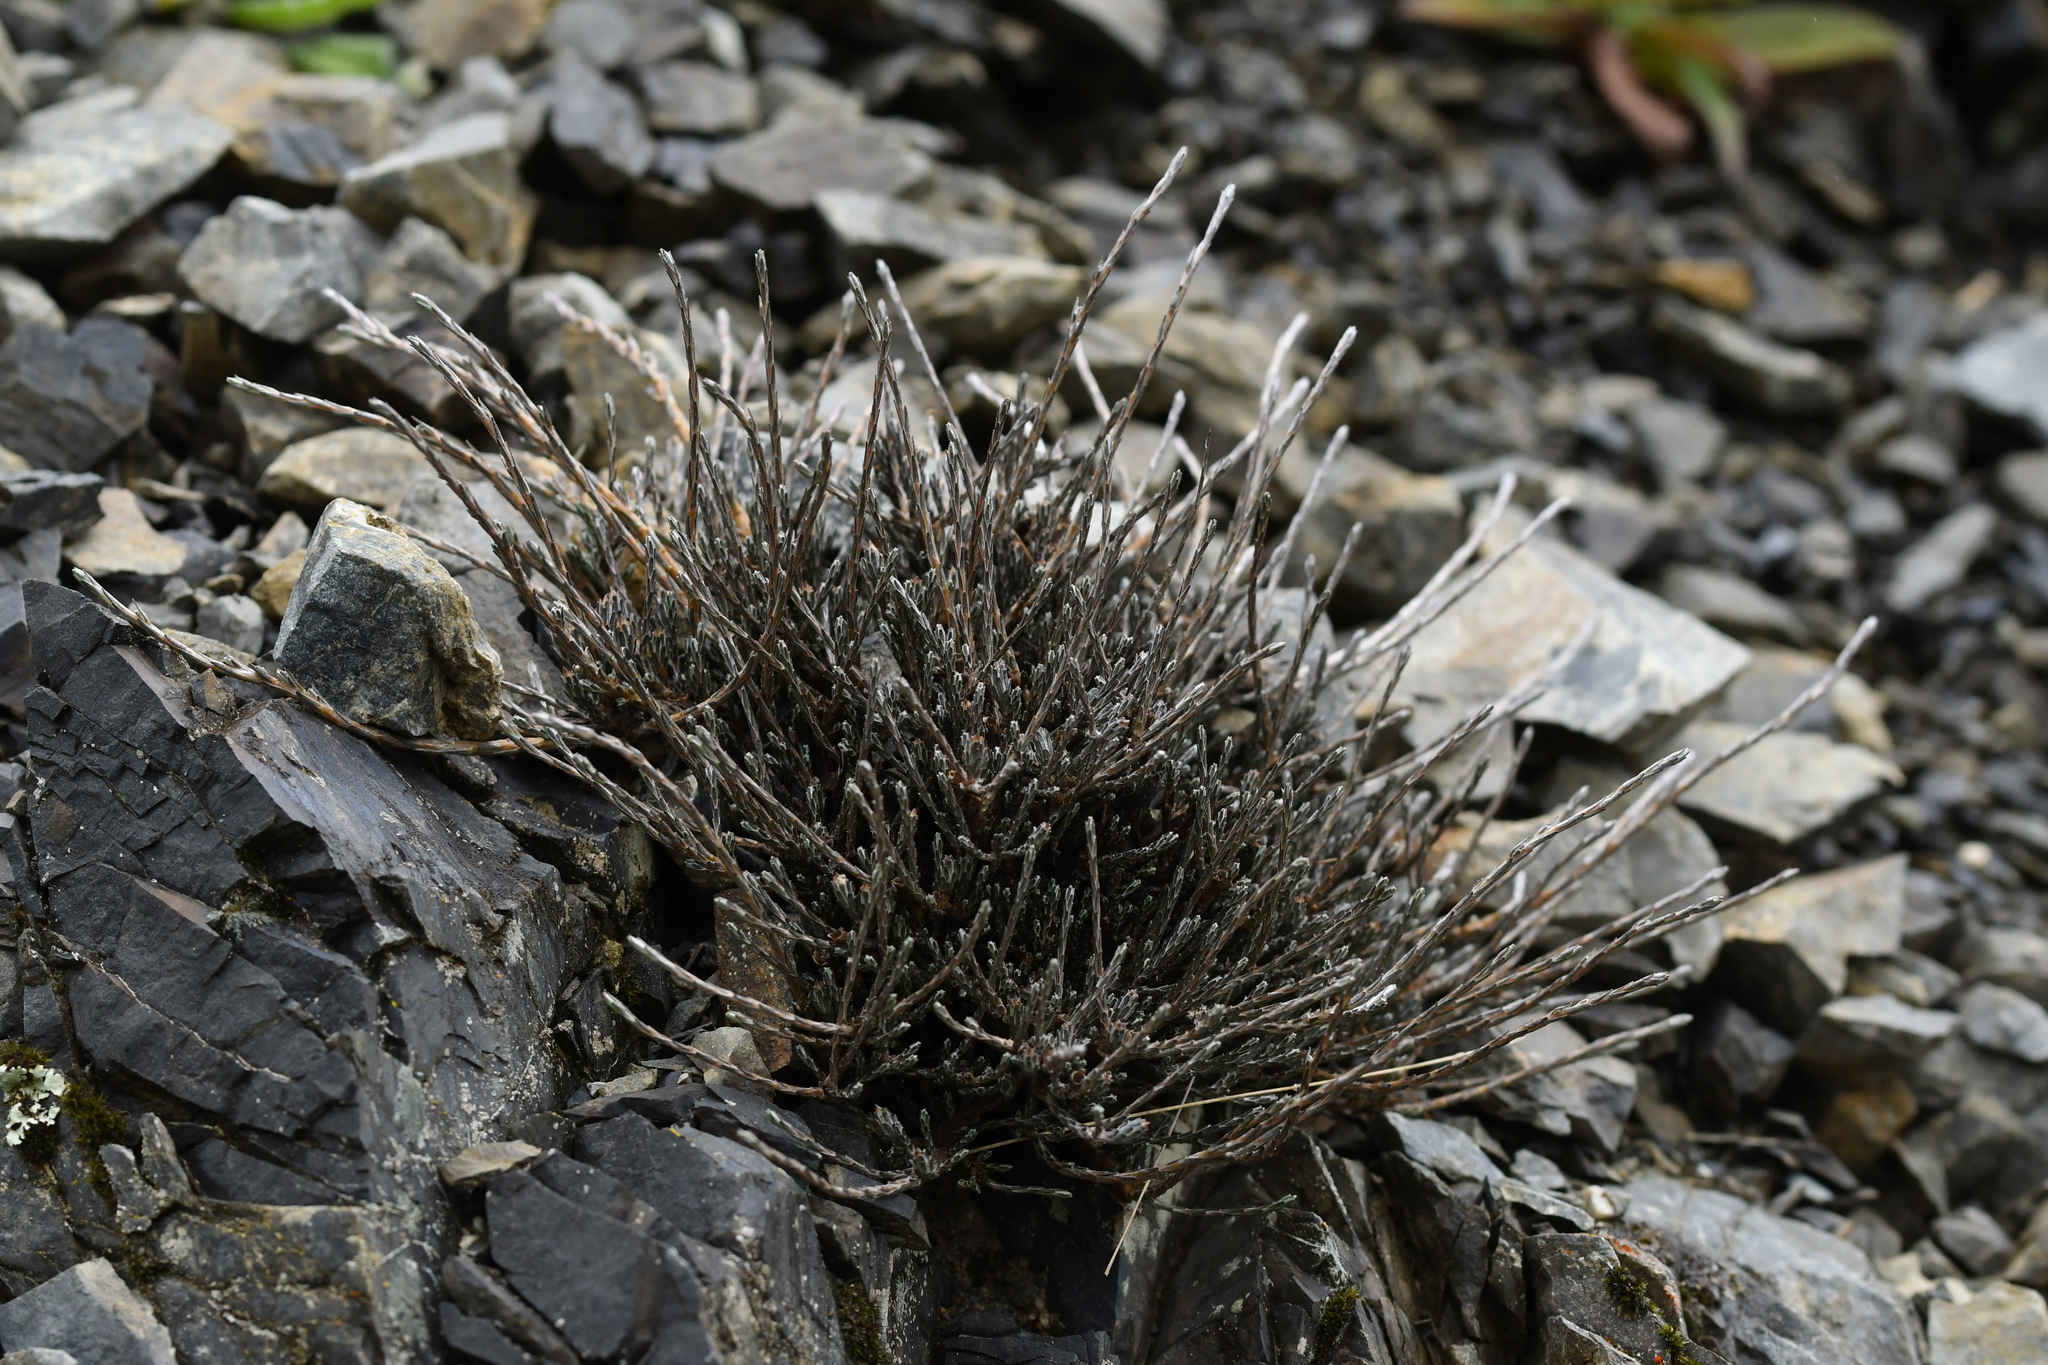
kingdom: Plantae
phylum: Tracheophyta
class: Magnoliopsida
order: Asterales
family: Asteraceae
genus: Ozothamnus
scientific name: Ozothamnus depressus
